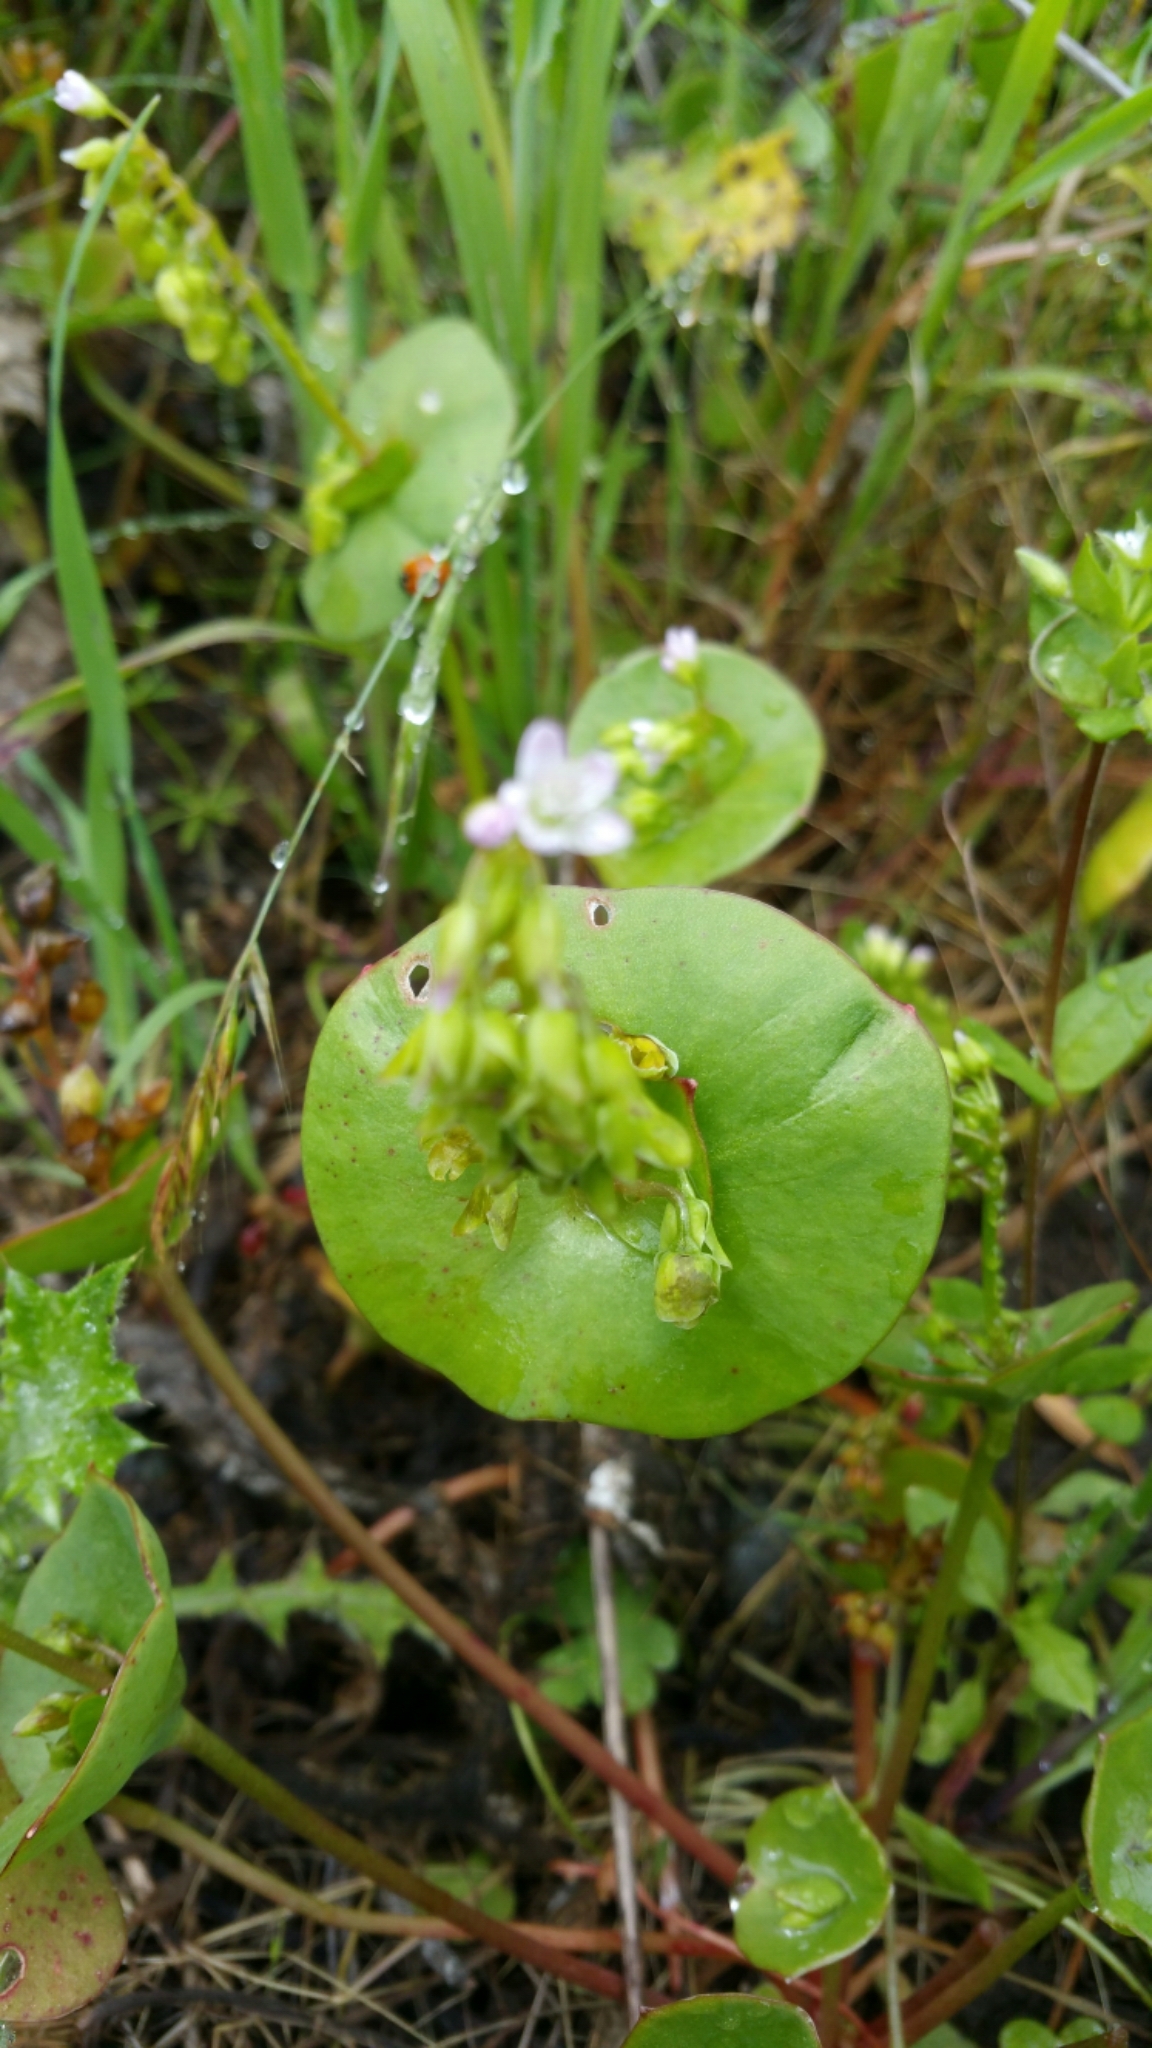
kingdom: Plantae
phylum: Tracheophyta
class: Magnoliopsida
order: Caryophyllales
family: Montiaceae
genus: Claytonia
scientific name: Claytonia perfoliata
